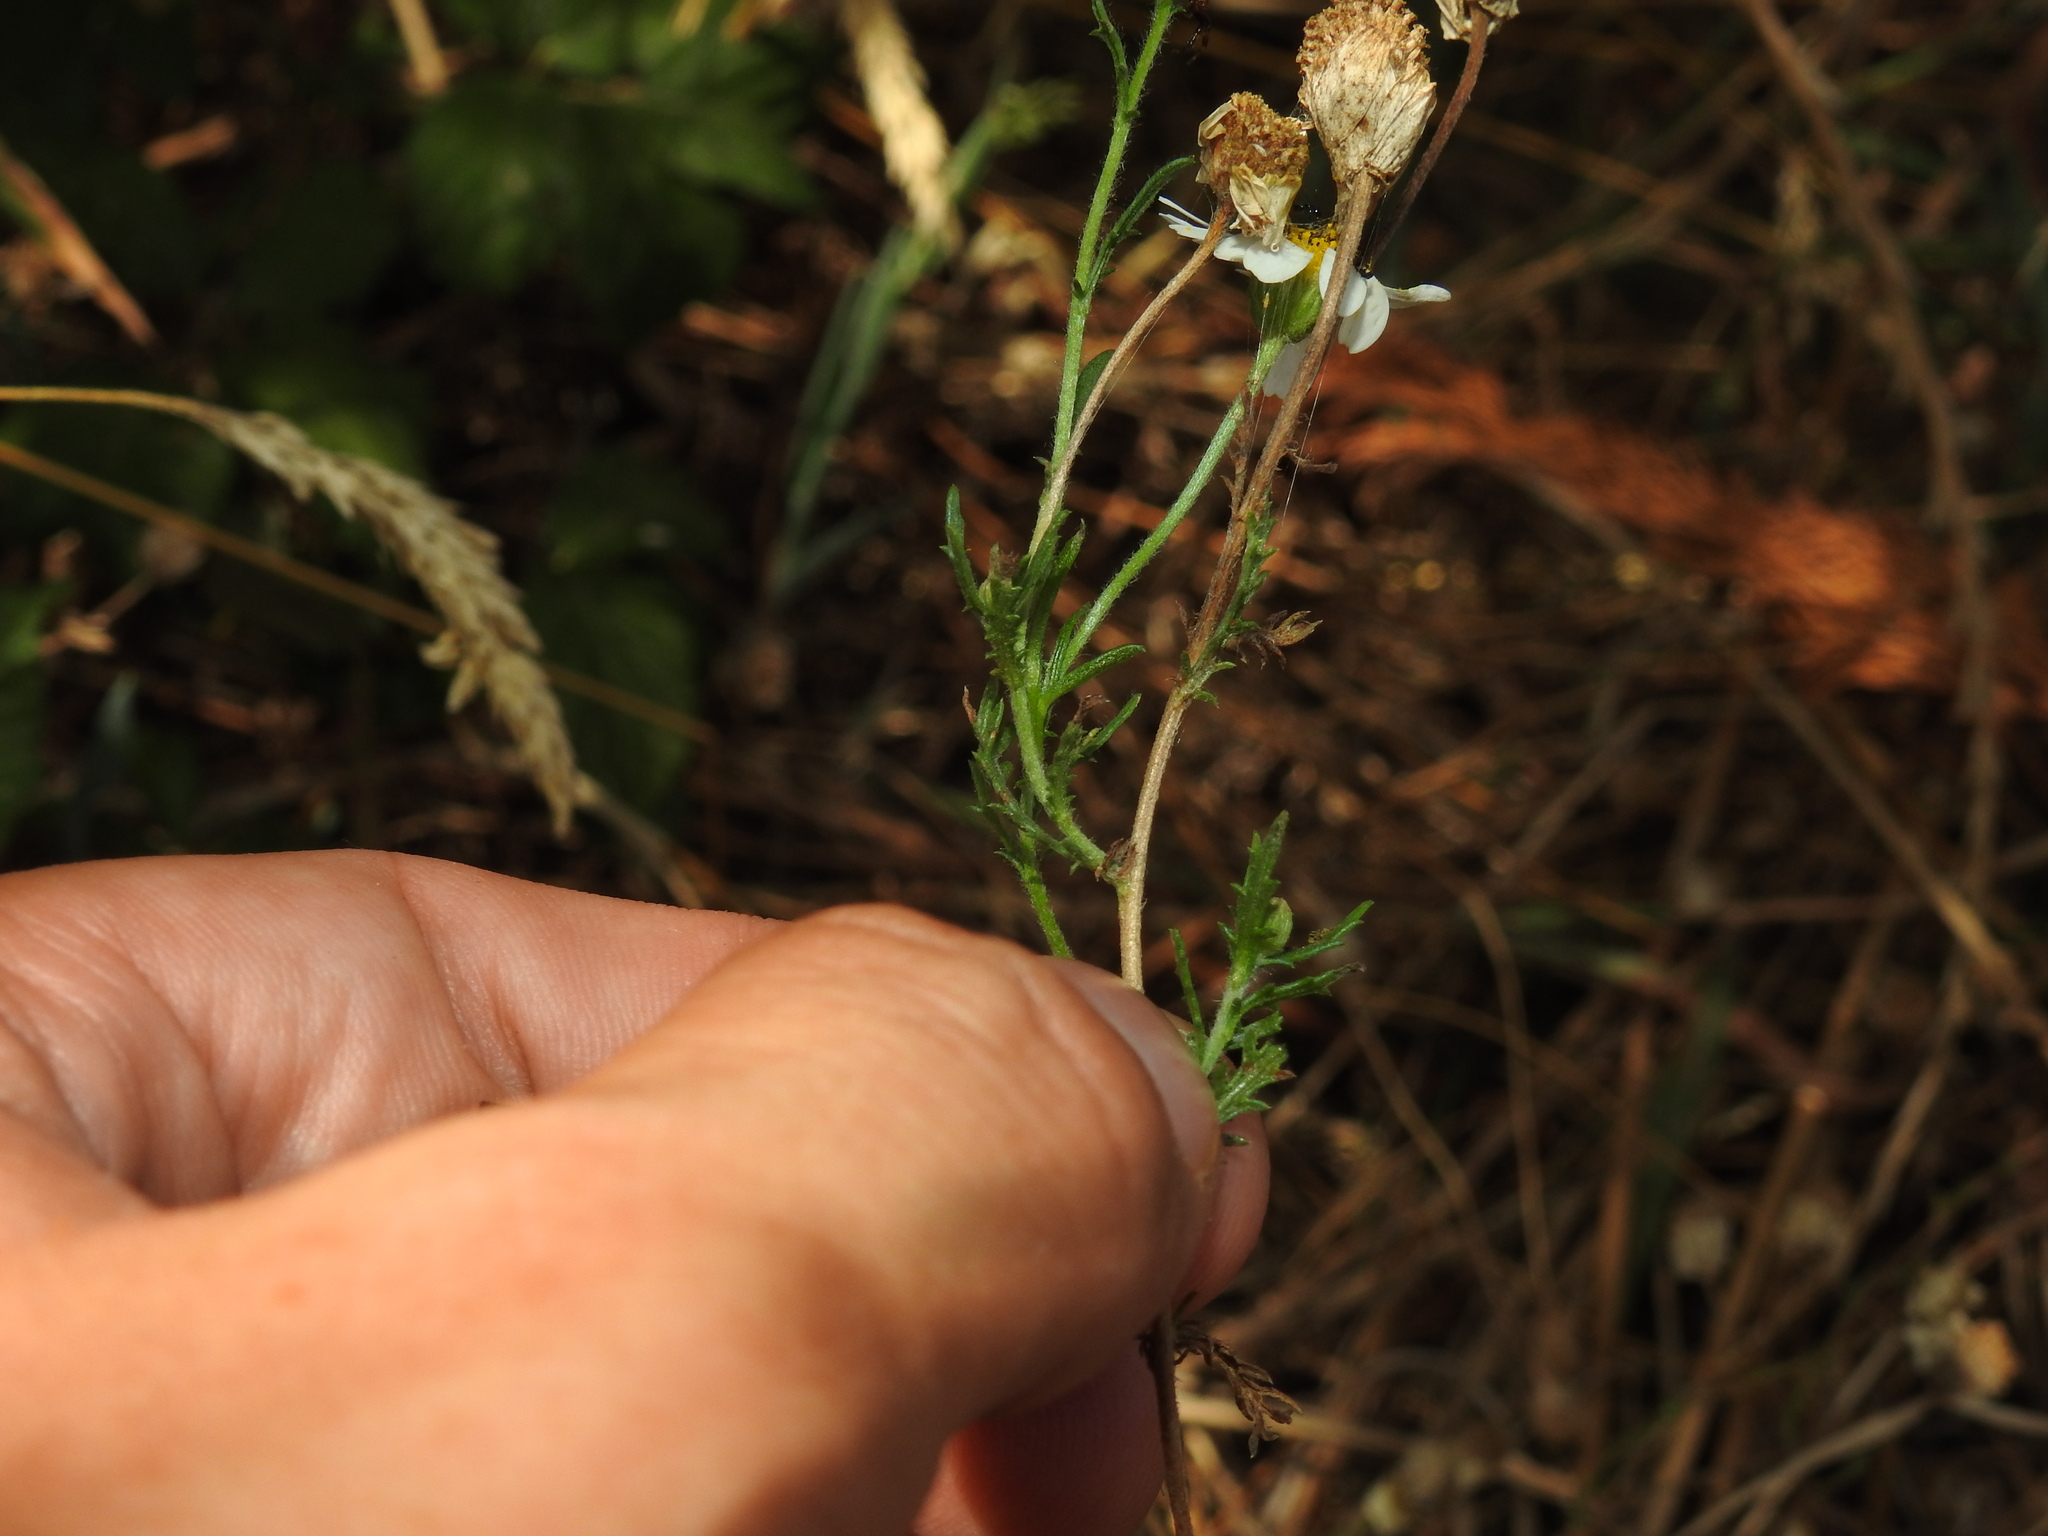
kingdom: Plantae
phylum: Tracheophyta
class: Magnoliopsida
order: Asterales
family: Asteraceae
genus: Cladanthus
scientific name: Cladanthus mixtus
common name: Weedy dogfennel
